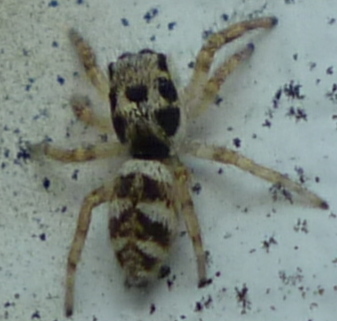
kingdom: Animalia
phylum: Arthropoda
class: Arachnida
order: Araneae
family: Salticidae
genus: Salticus
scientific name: Salticus scenicus
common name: Zebra jumper
